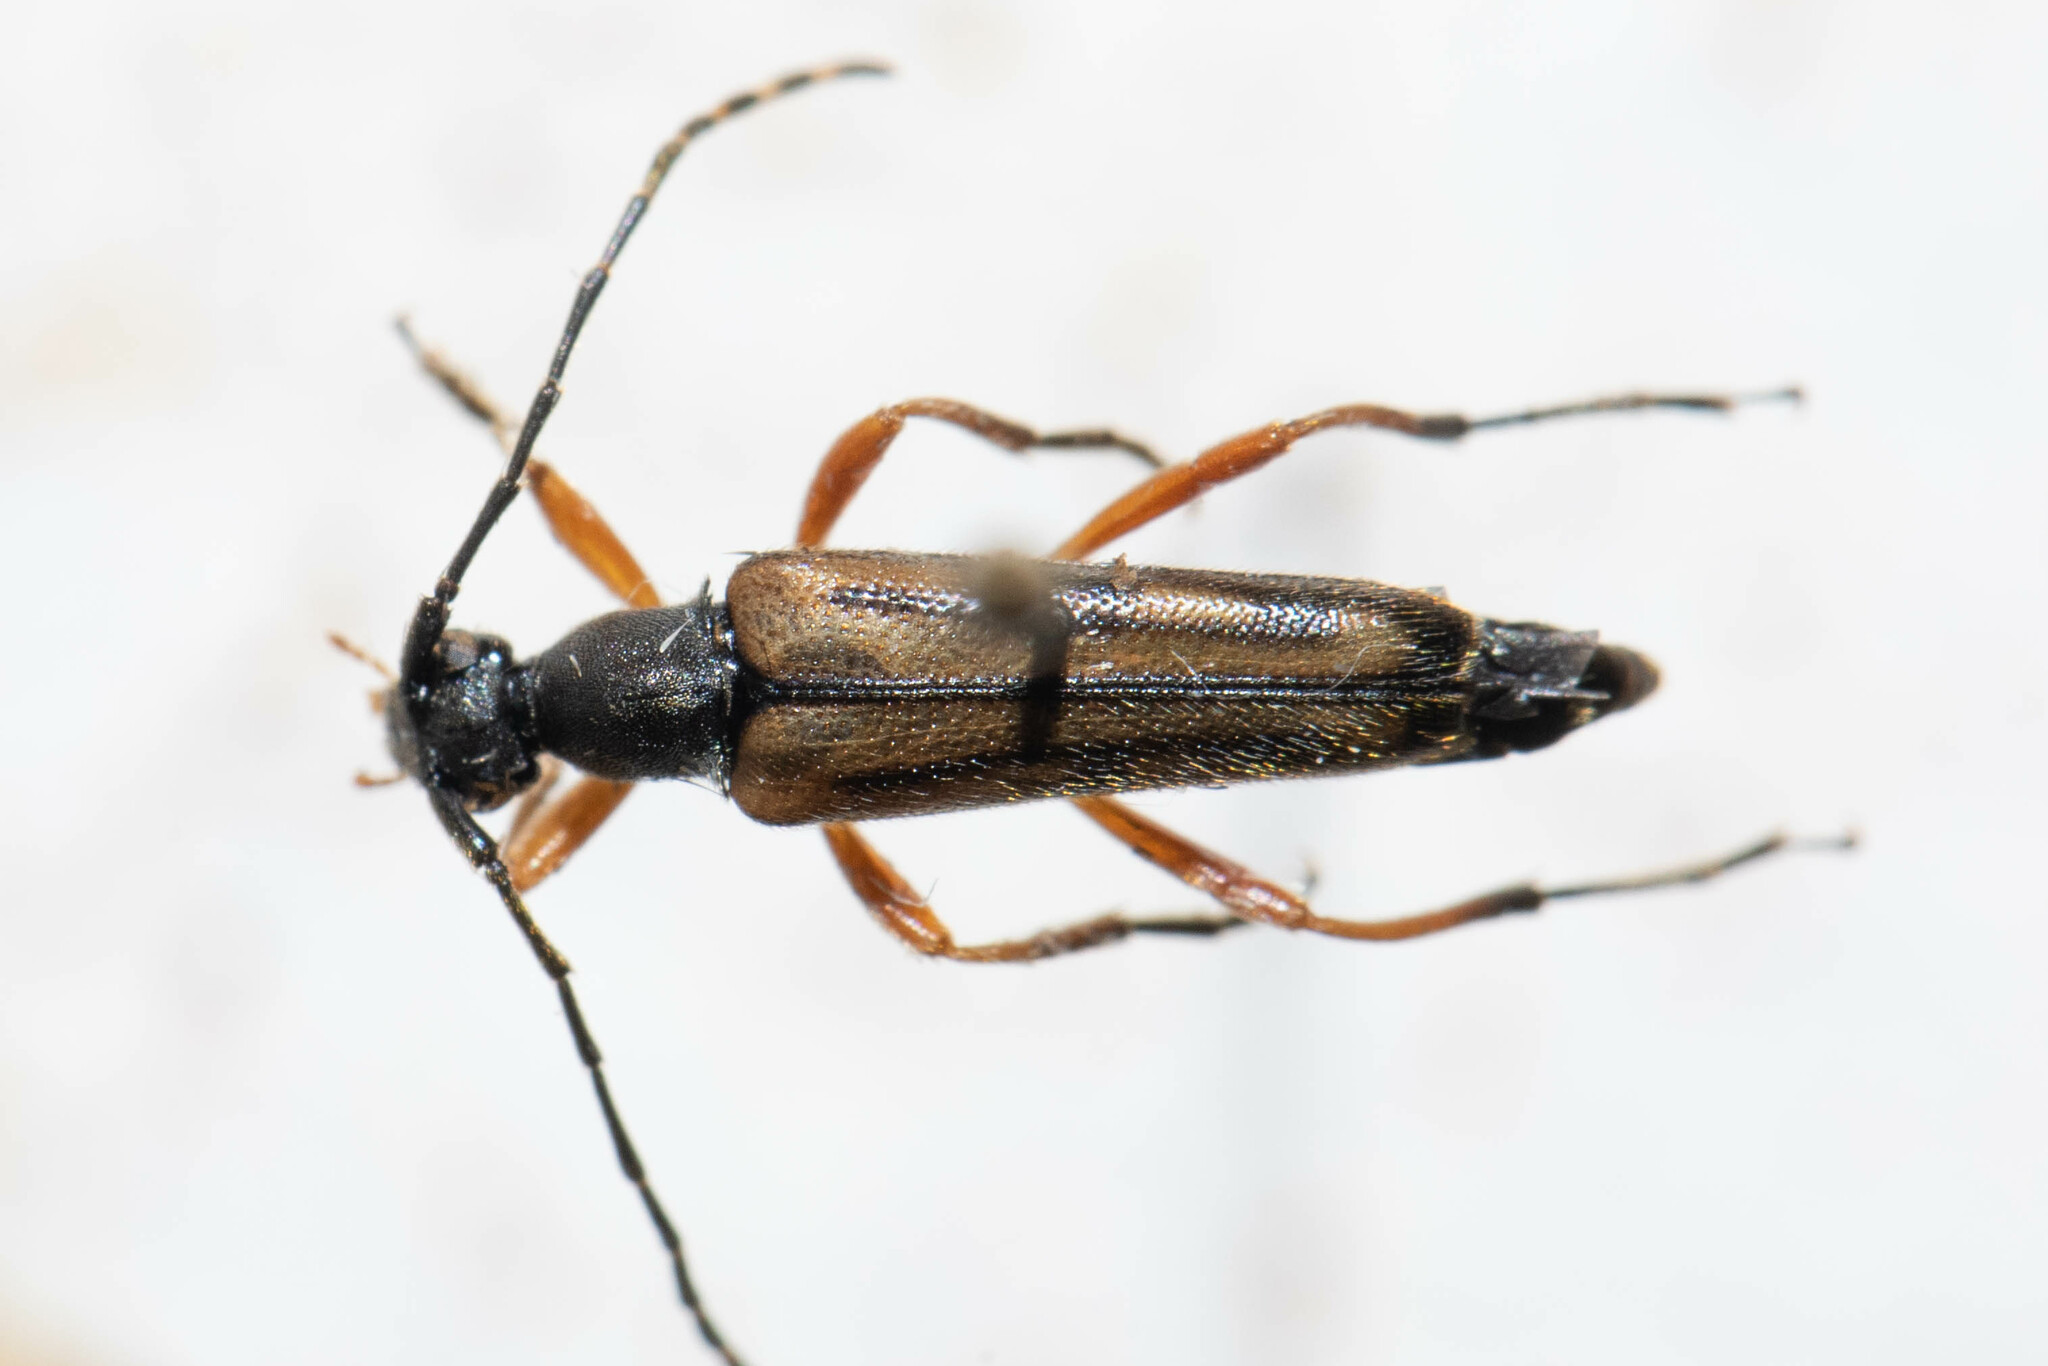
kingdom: Animalia
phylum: Arthropoda
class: Insecta
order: Coleoptera
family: Cerambycidae
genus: Analeptura
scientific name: Analeptura lineola
